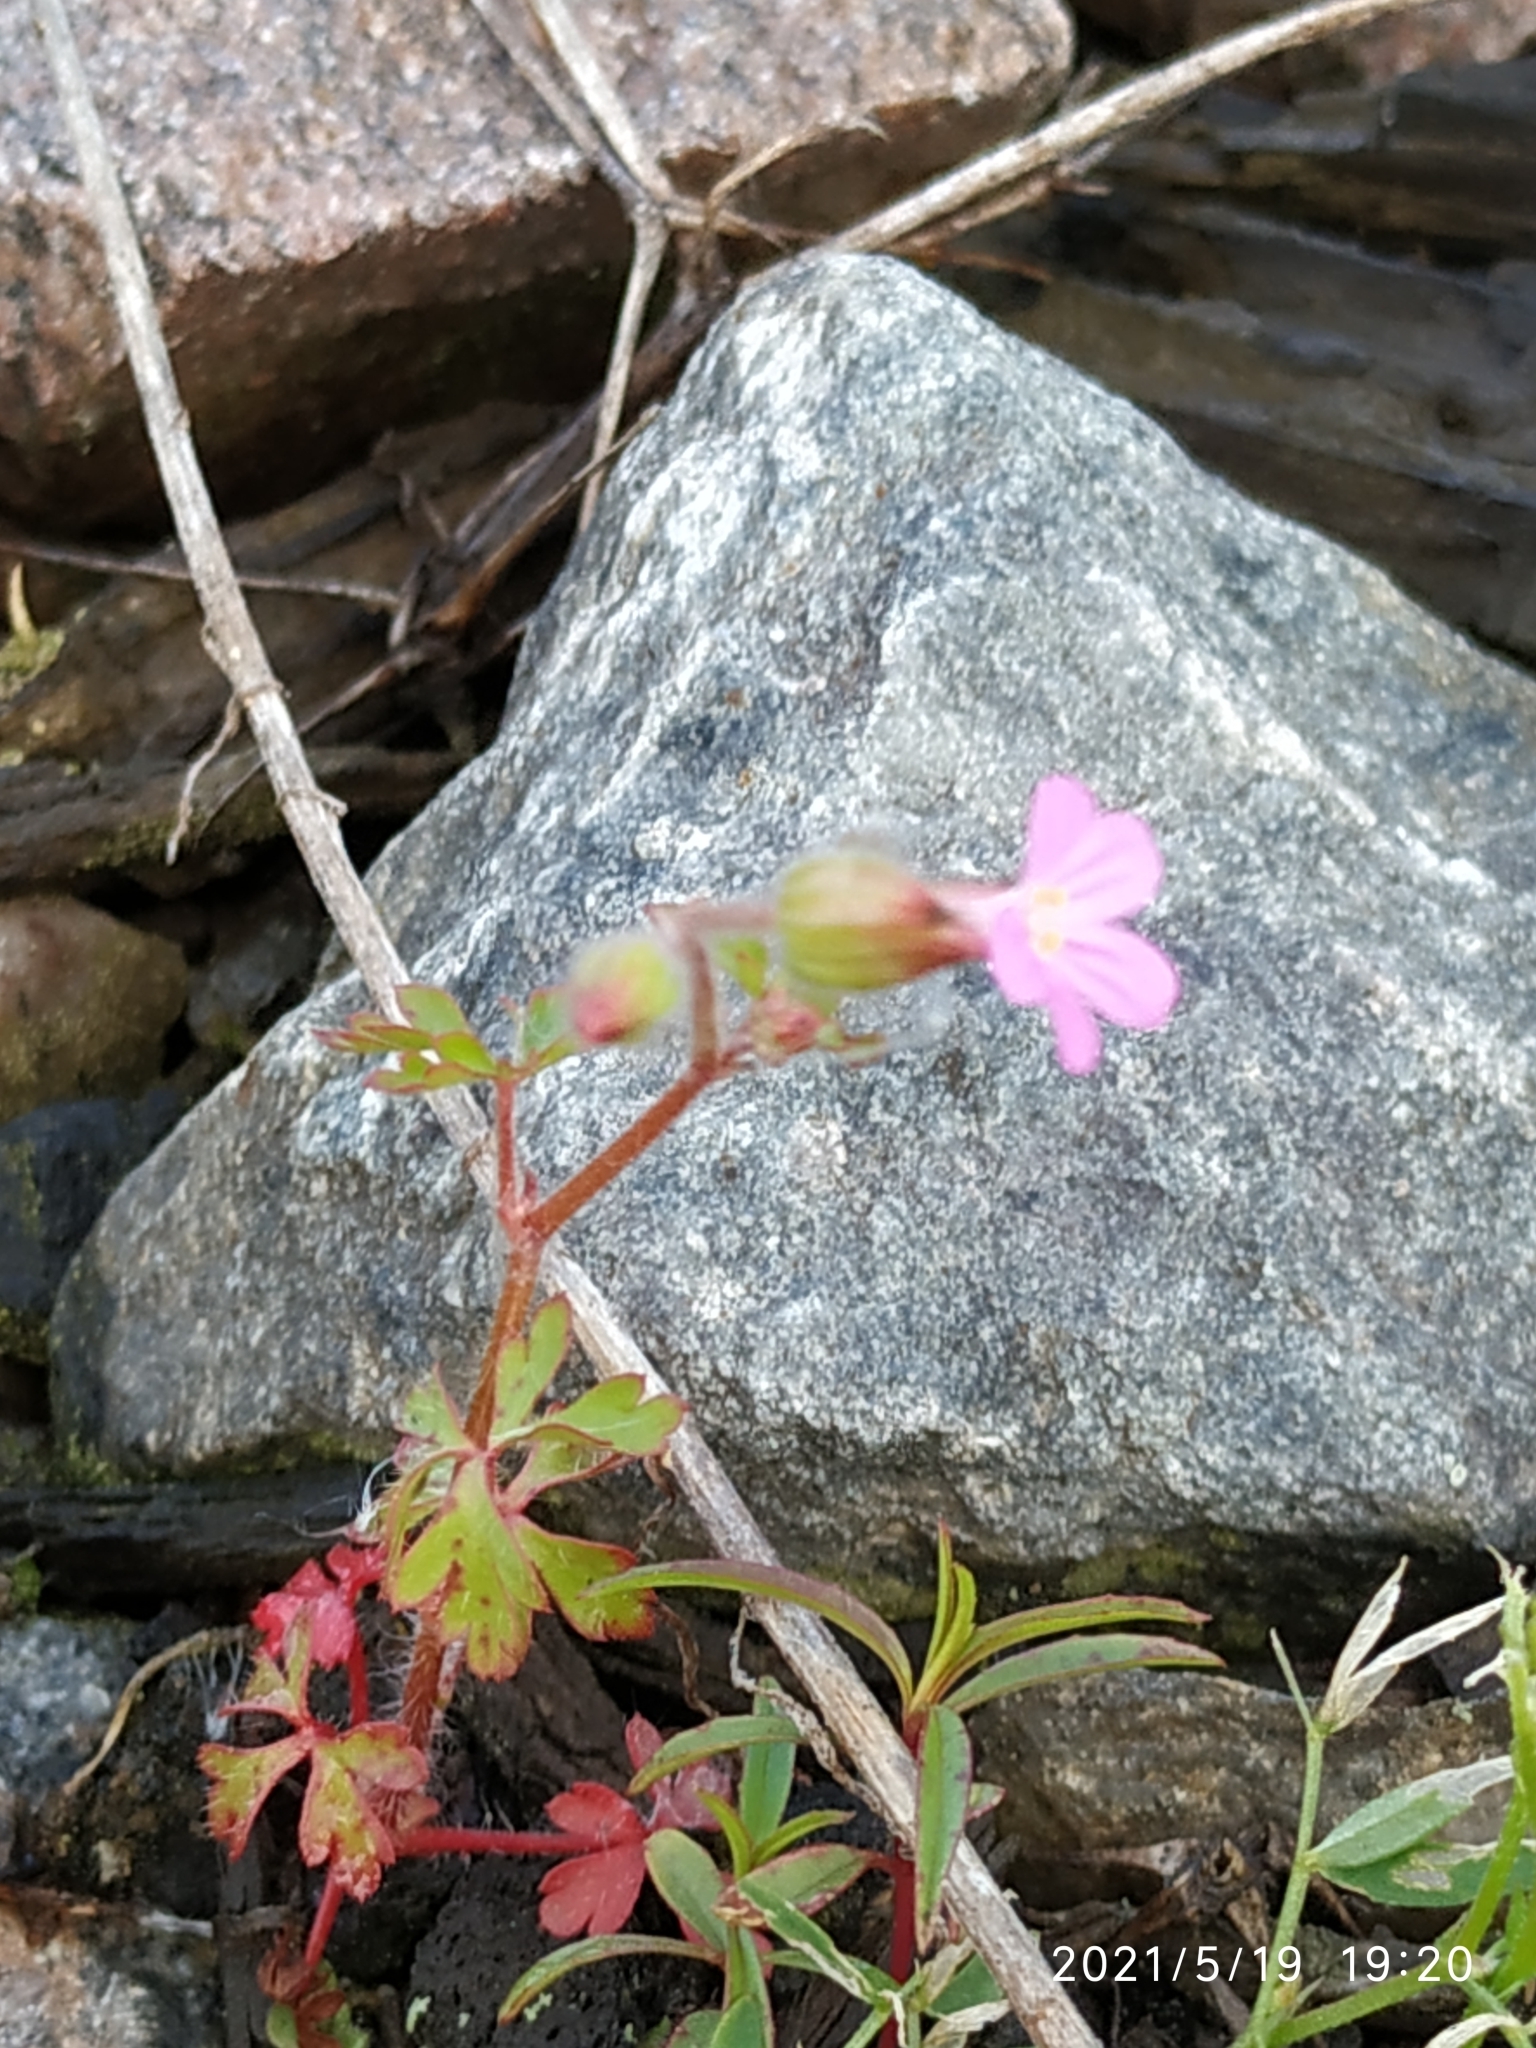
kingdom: Plantae
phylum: Tracheophyta
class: Magnoliopsida
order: Geraniales
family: Geraniaceae
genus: Geranium
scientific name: Geranium purpureum
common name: Little-robin
